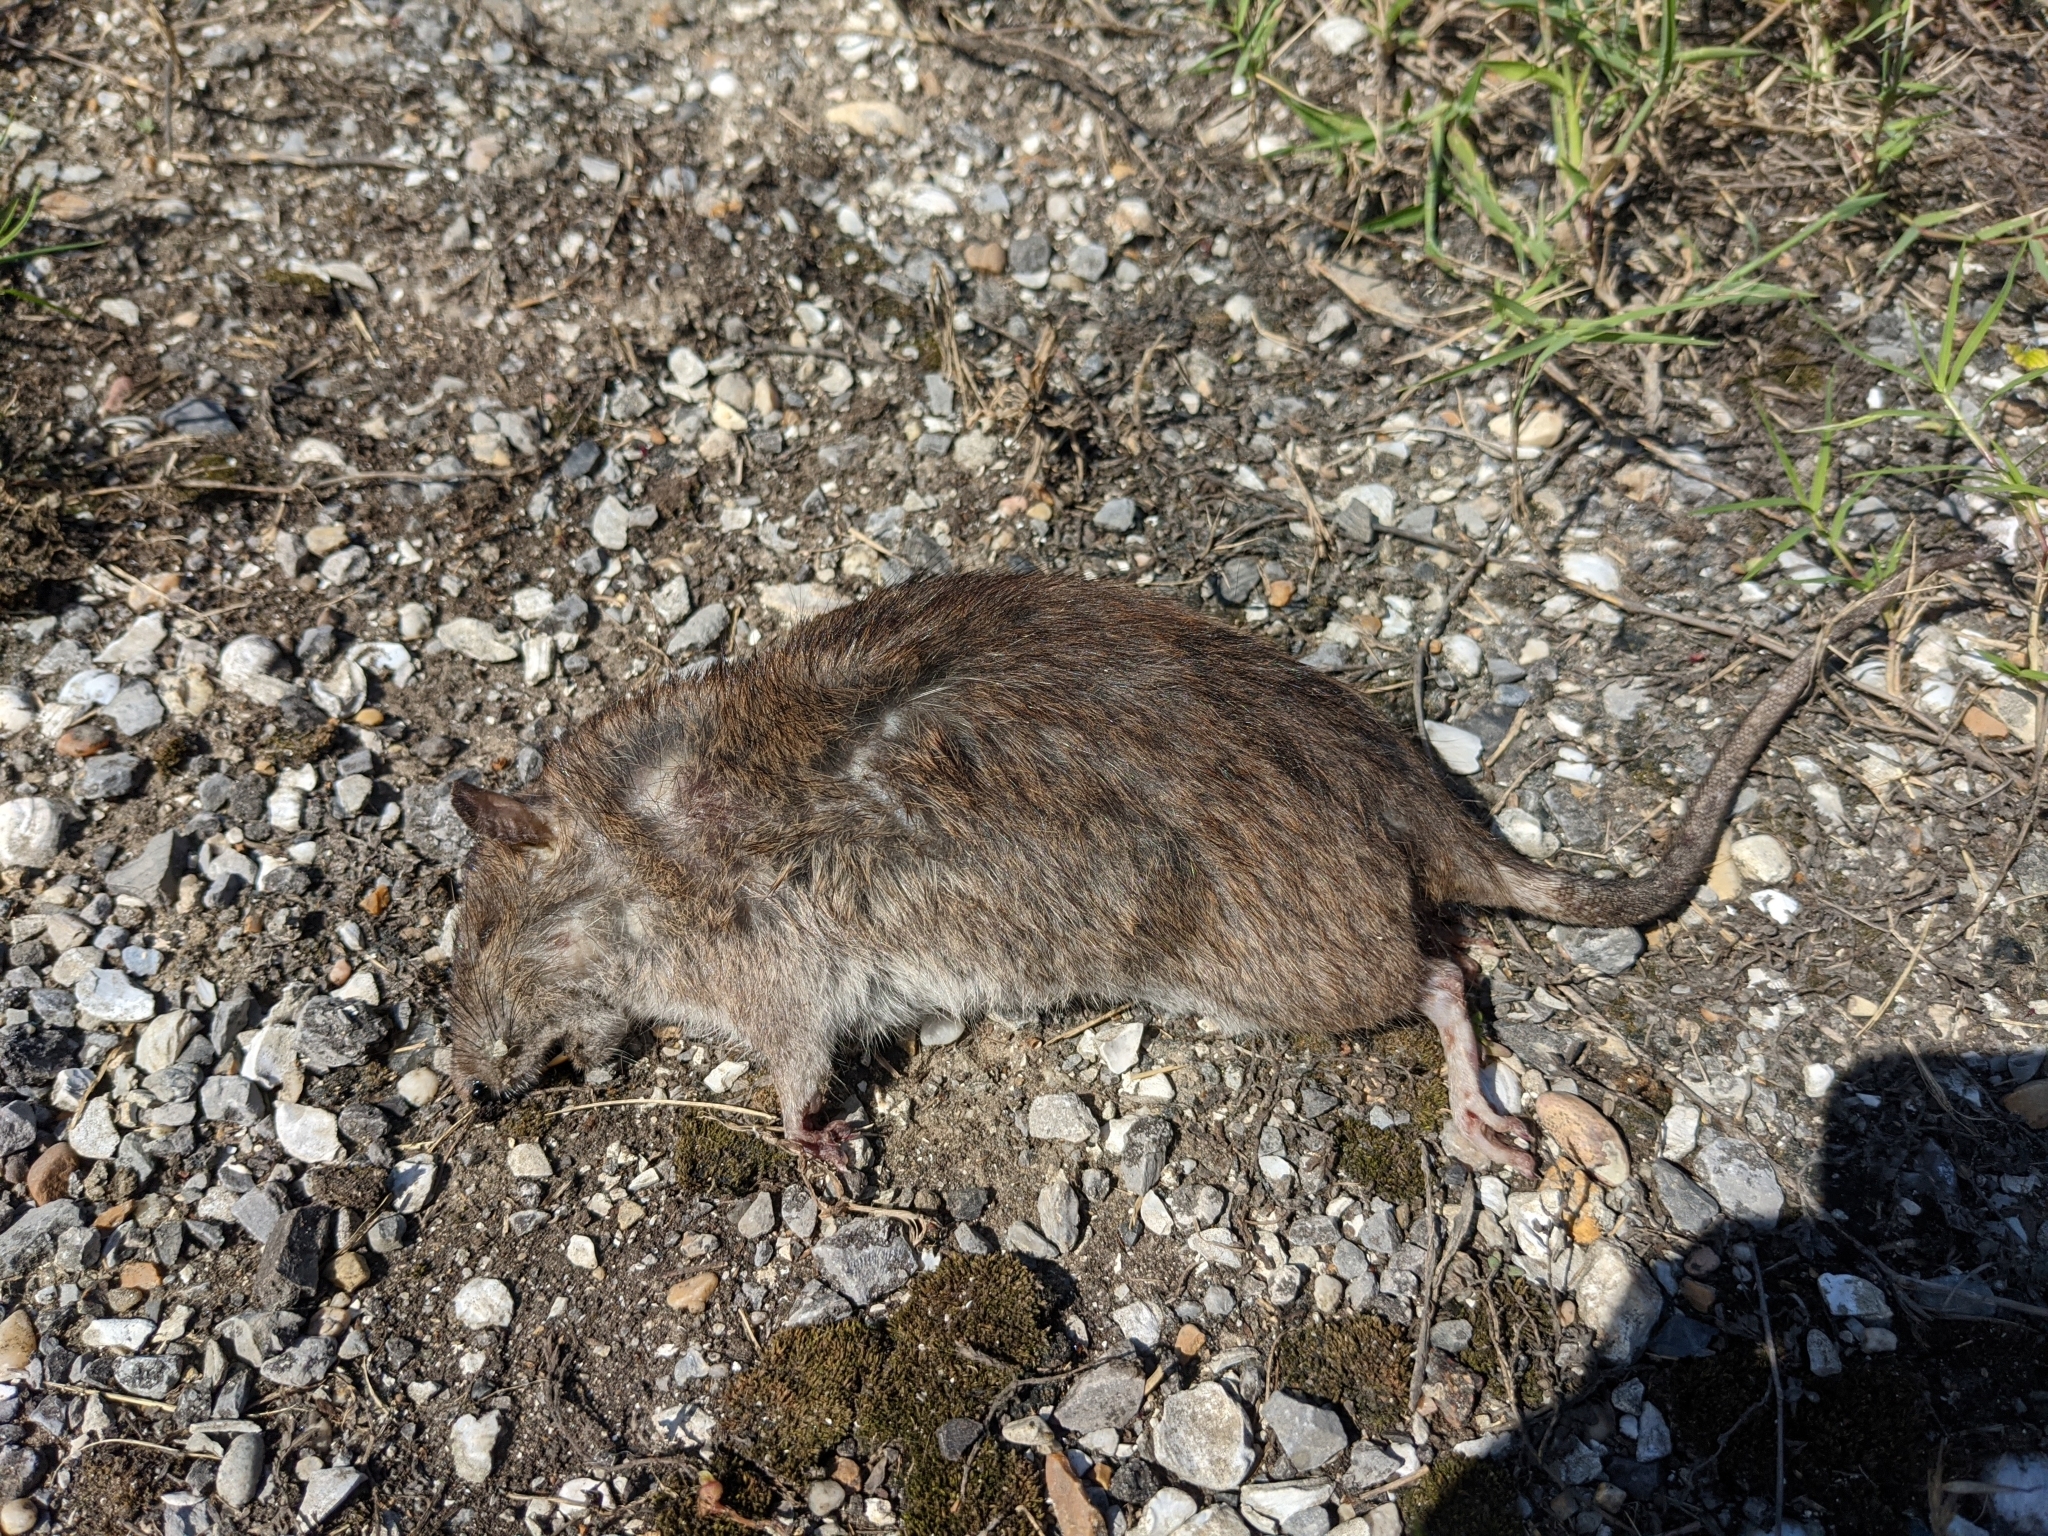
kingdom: Animalia
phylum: Chordata
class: Mammalia
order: Rodentia
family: Muridae
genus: Rattus
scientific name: Rattus norvegicus
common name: Brown rat
